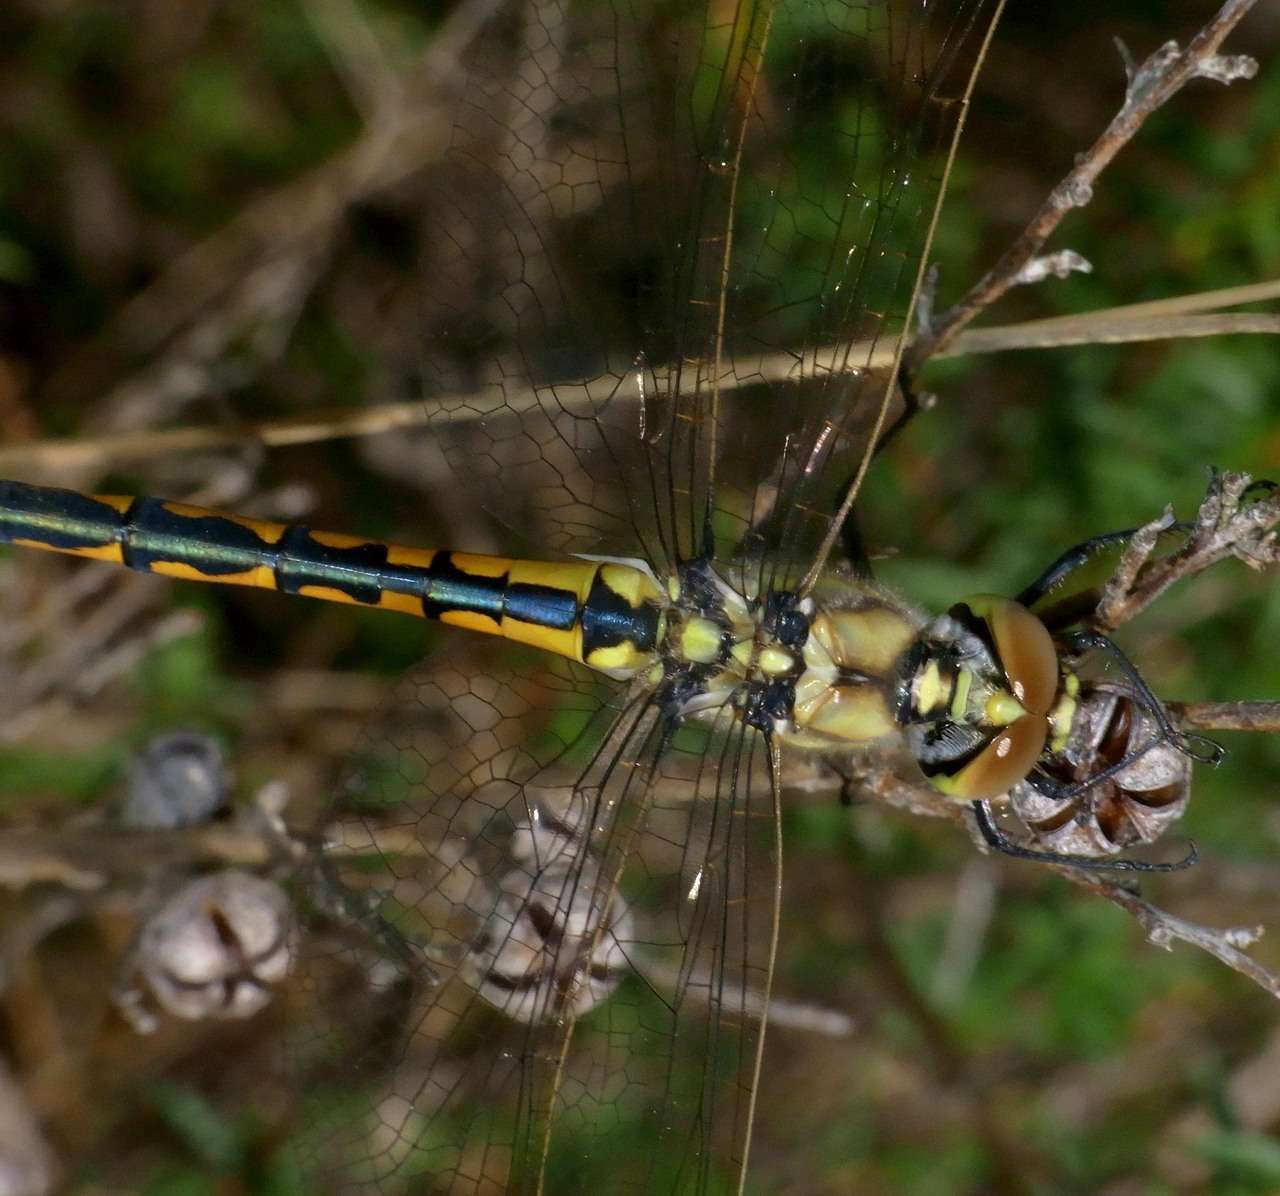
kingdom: Animalia
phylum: Arthropoda
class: Insecta
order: Odonata
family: Corduliidae
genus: Hemicordulia
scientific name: Hemicordulia tau
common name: Tau emerald
